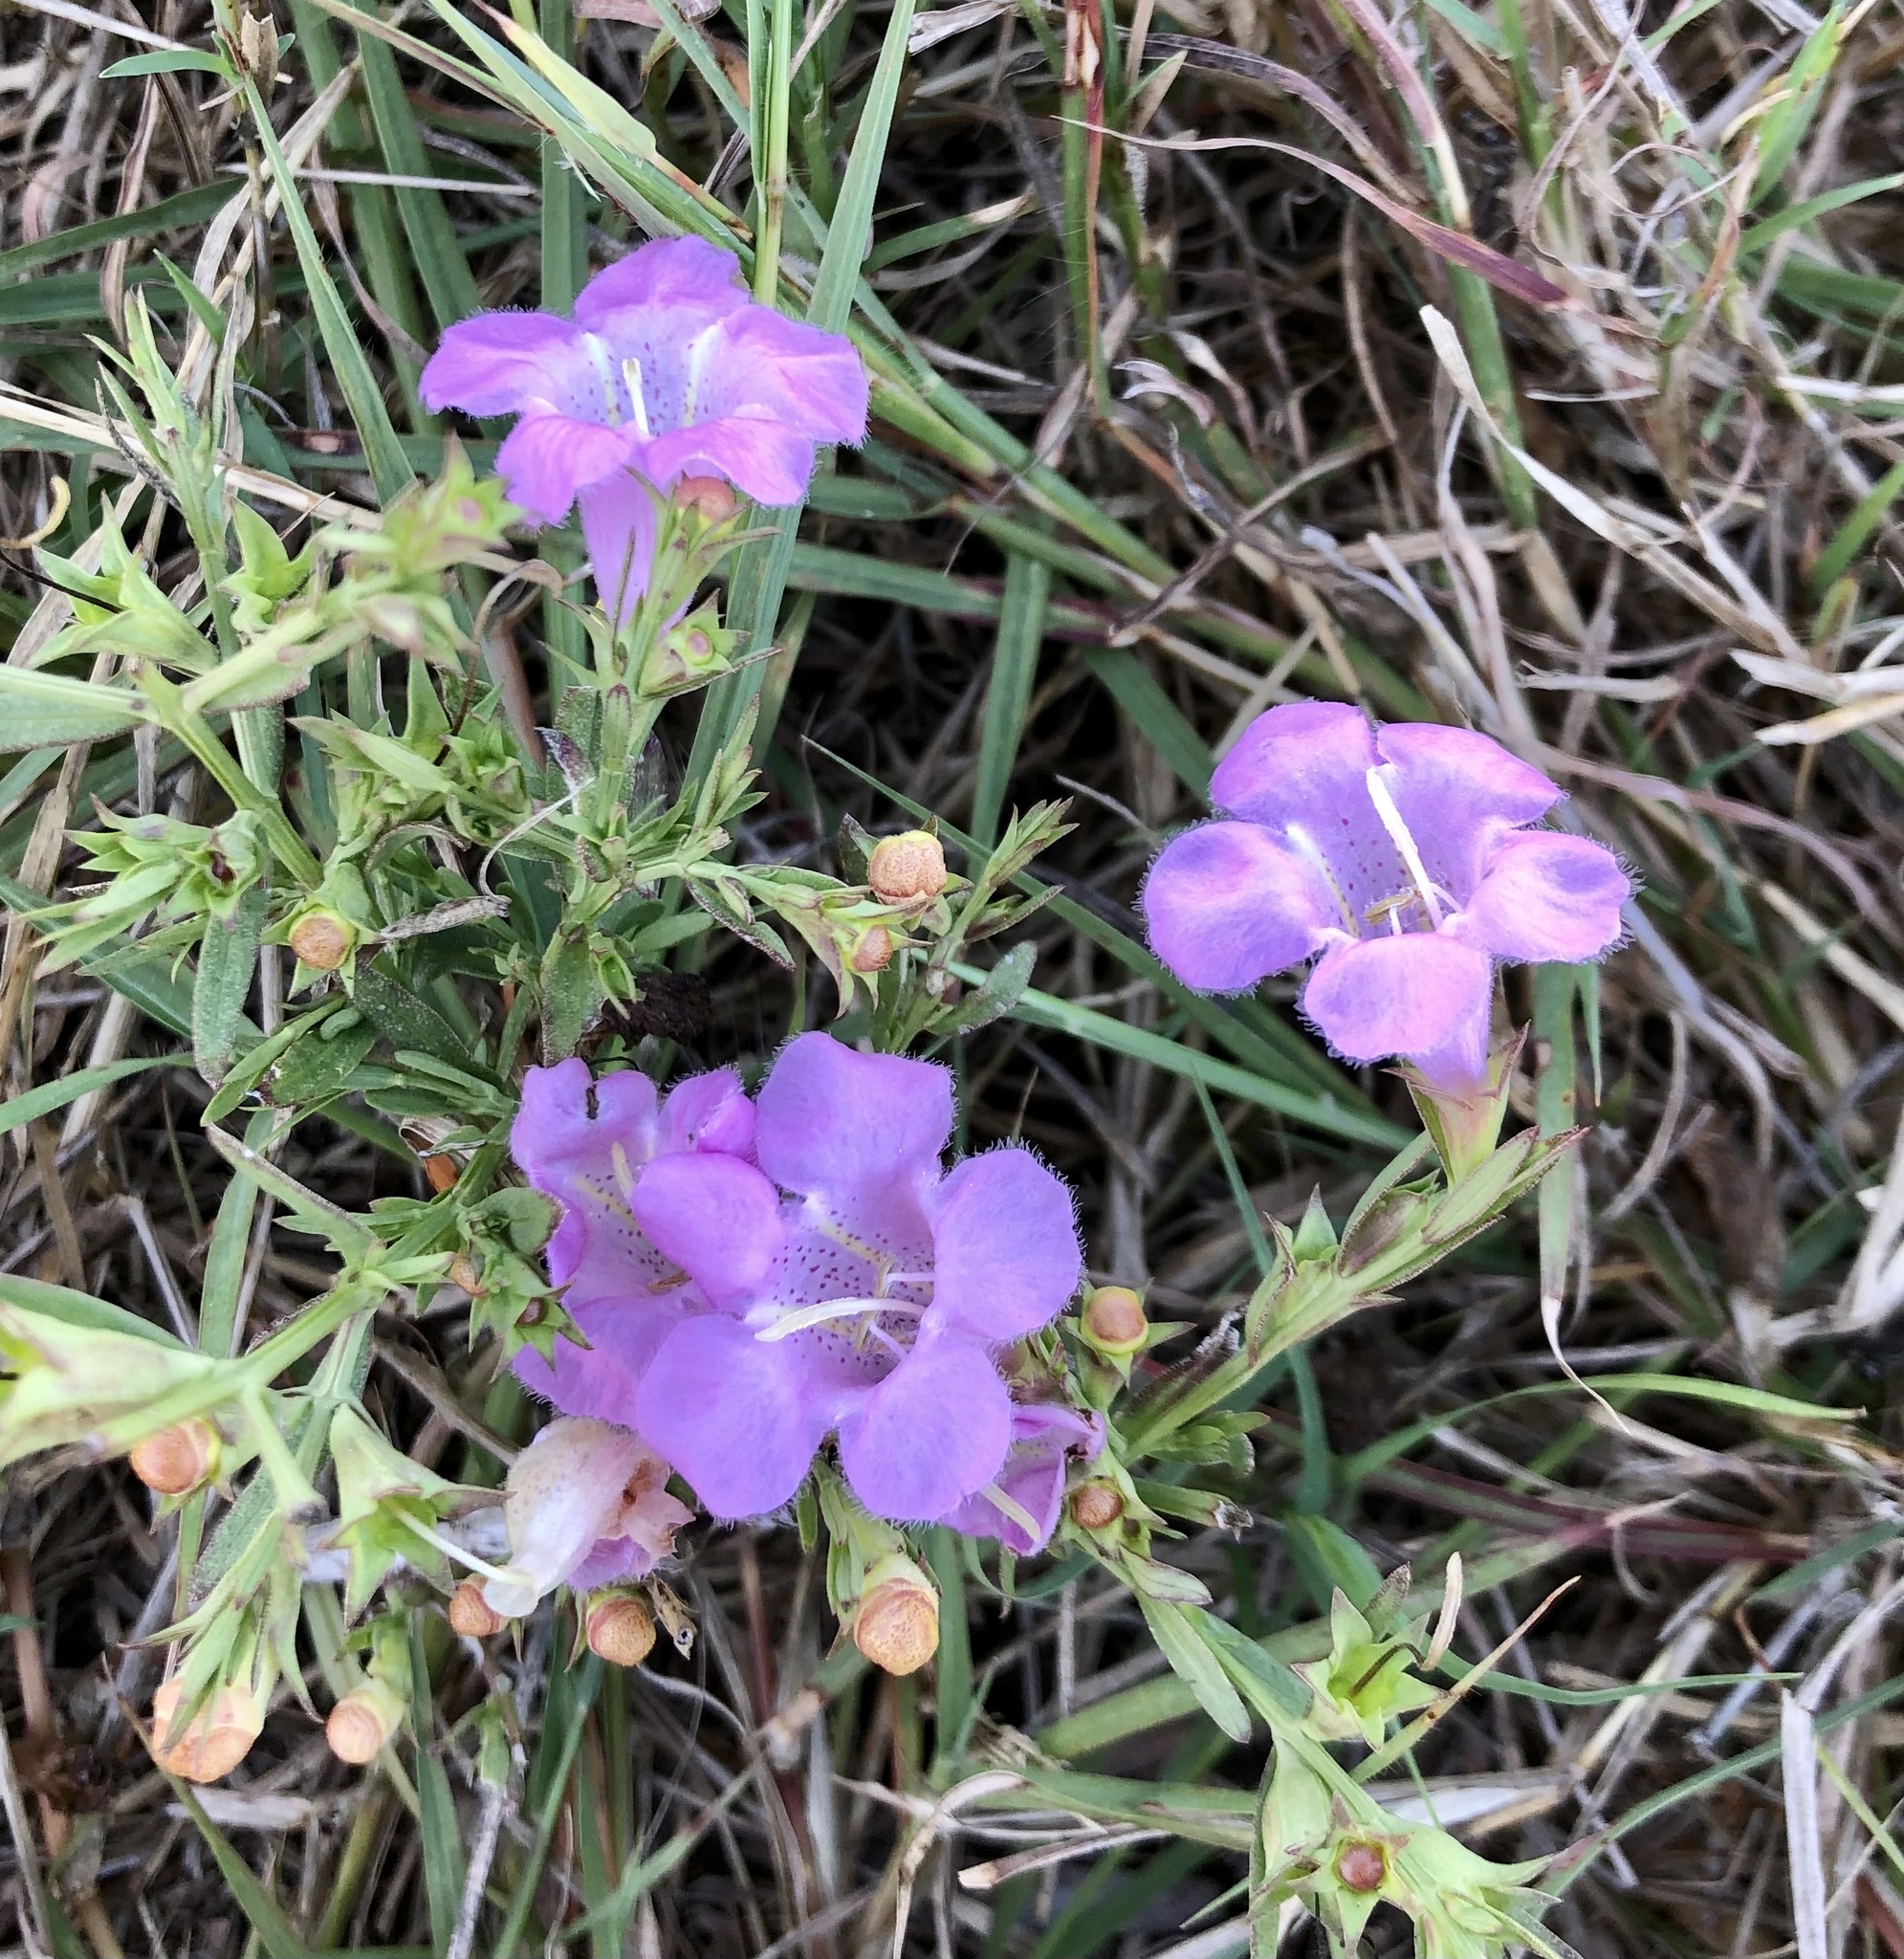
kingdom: Plantae
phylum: Tracheophyta
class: Magnoliopsida
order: Lamiales
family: Orobanchaceae
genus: Agalinis
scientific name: Agalinis heterophylla
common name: Prairie agalinis
